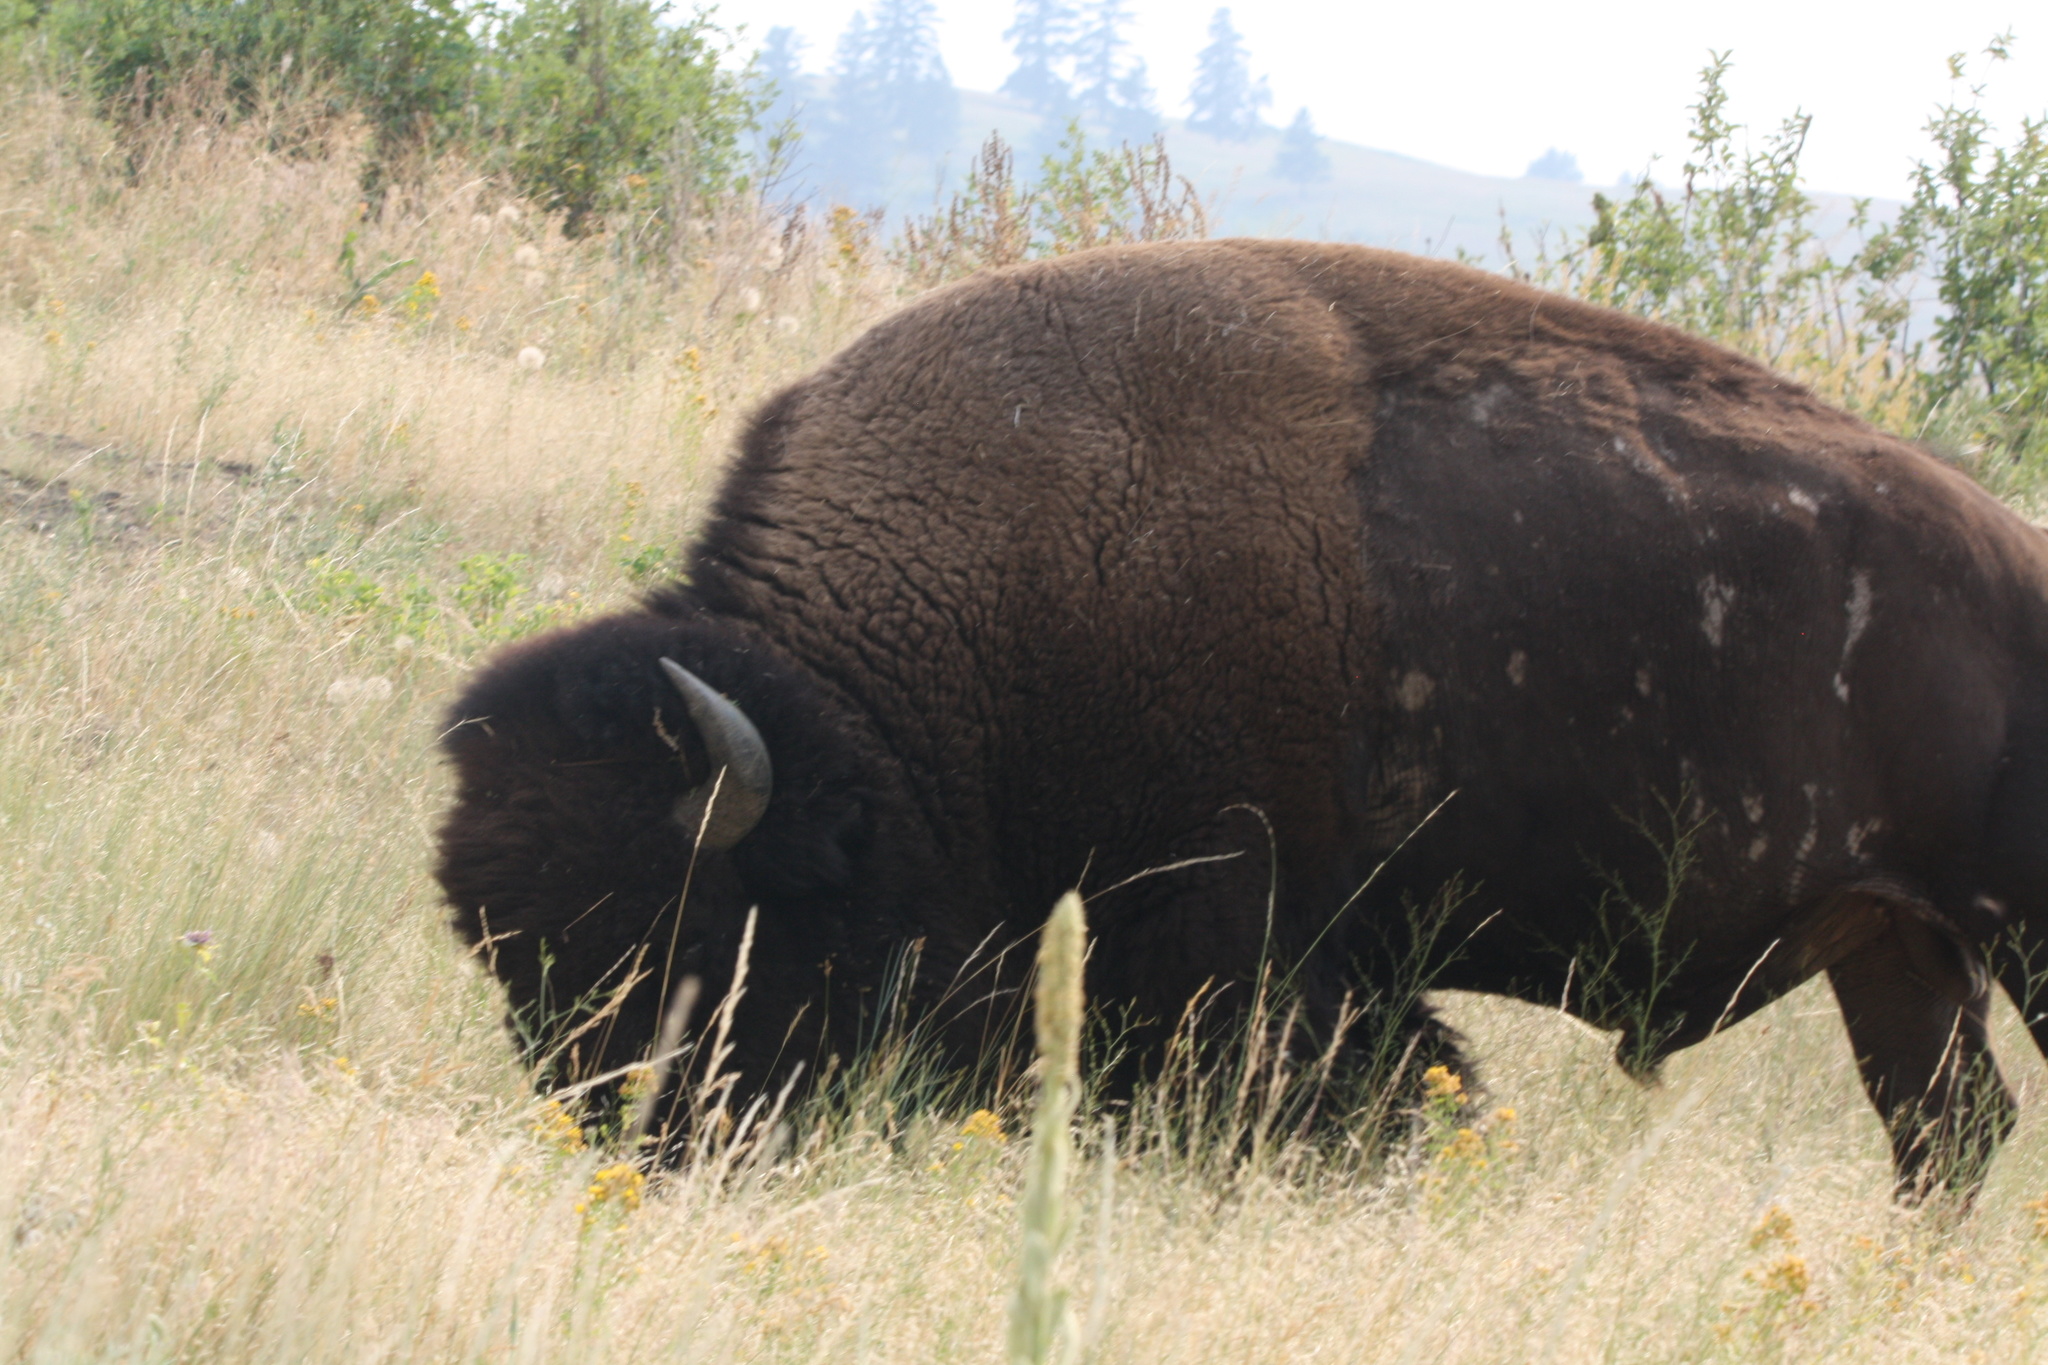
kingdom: Animalia
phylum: Chordata
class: Mammalia
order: Artiodactyla
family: Bovidae
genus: Bison
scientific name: Bison bison
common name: American bison
